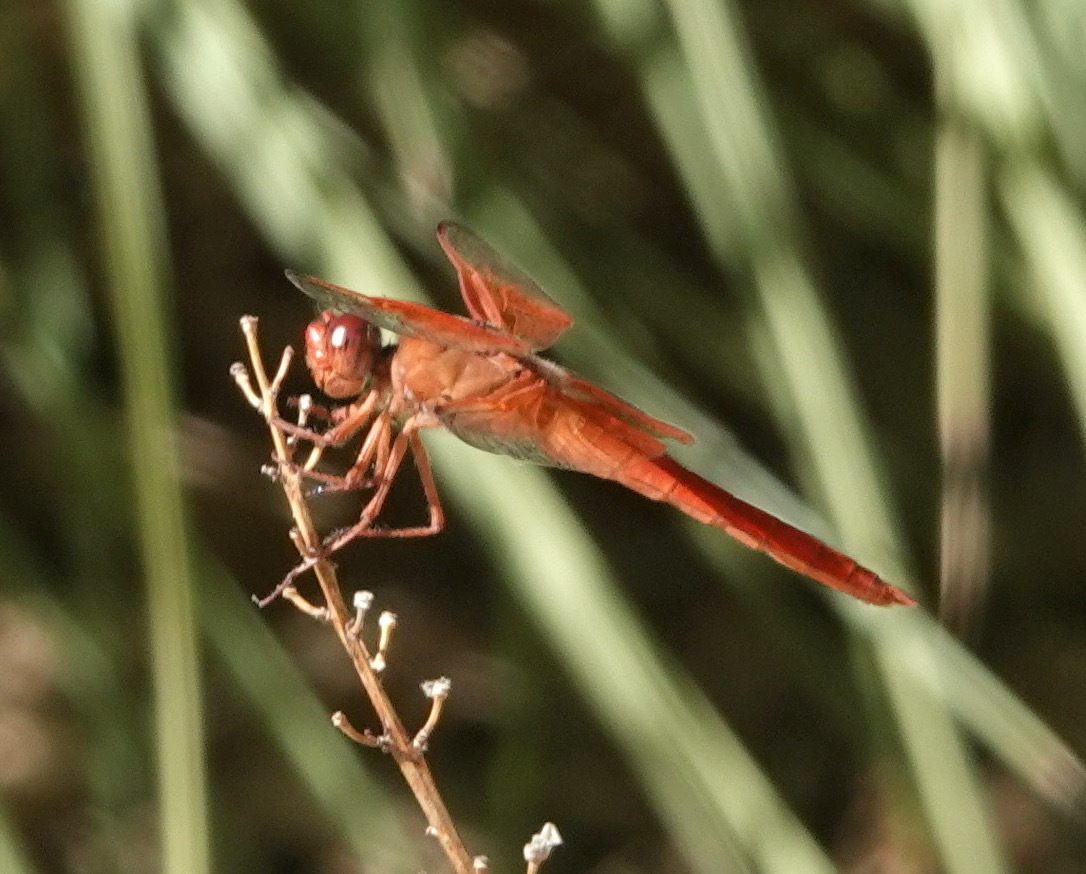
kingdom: Animalia
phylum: Arthropoda
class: Insecta
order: Odonata
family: Libellulidae
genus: Libellula
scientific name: Libellula saturata
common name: Flame skimmer
